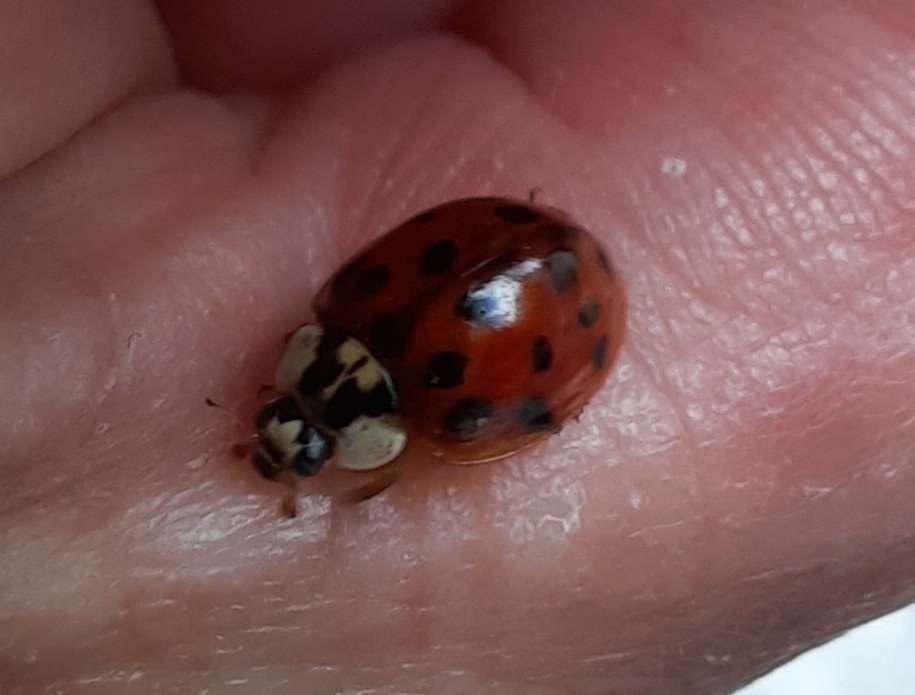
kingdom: Animalia
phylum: Arthropoda
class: Insecta
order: Coleoptera
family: Coccinellidae
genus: Harmonia
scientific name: Harmonia axyridis
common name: Harlequin ladybird
